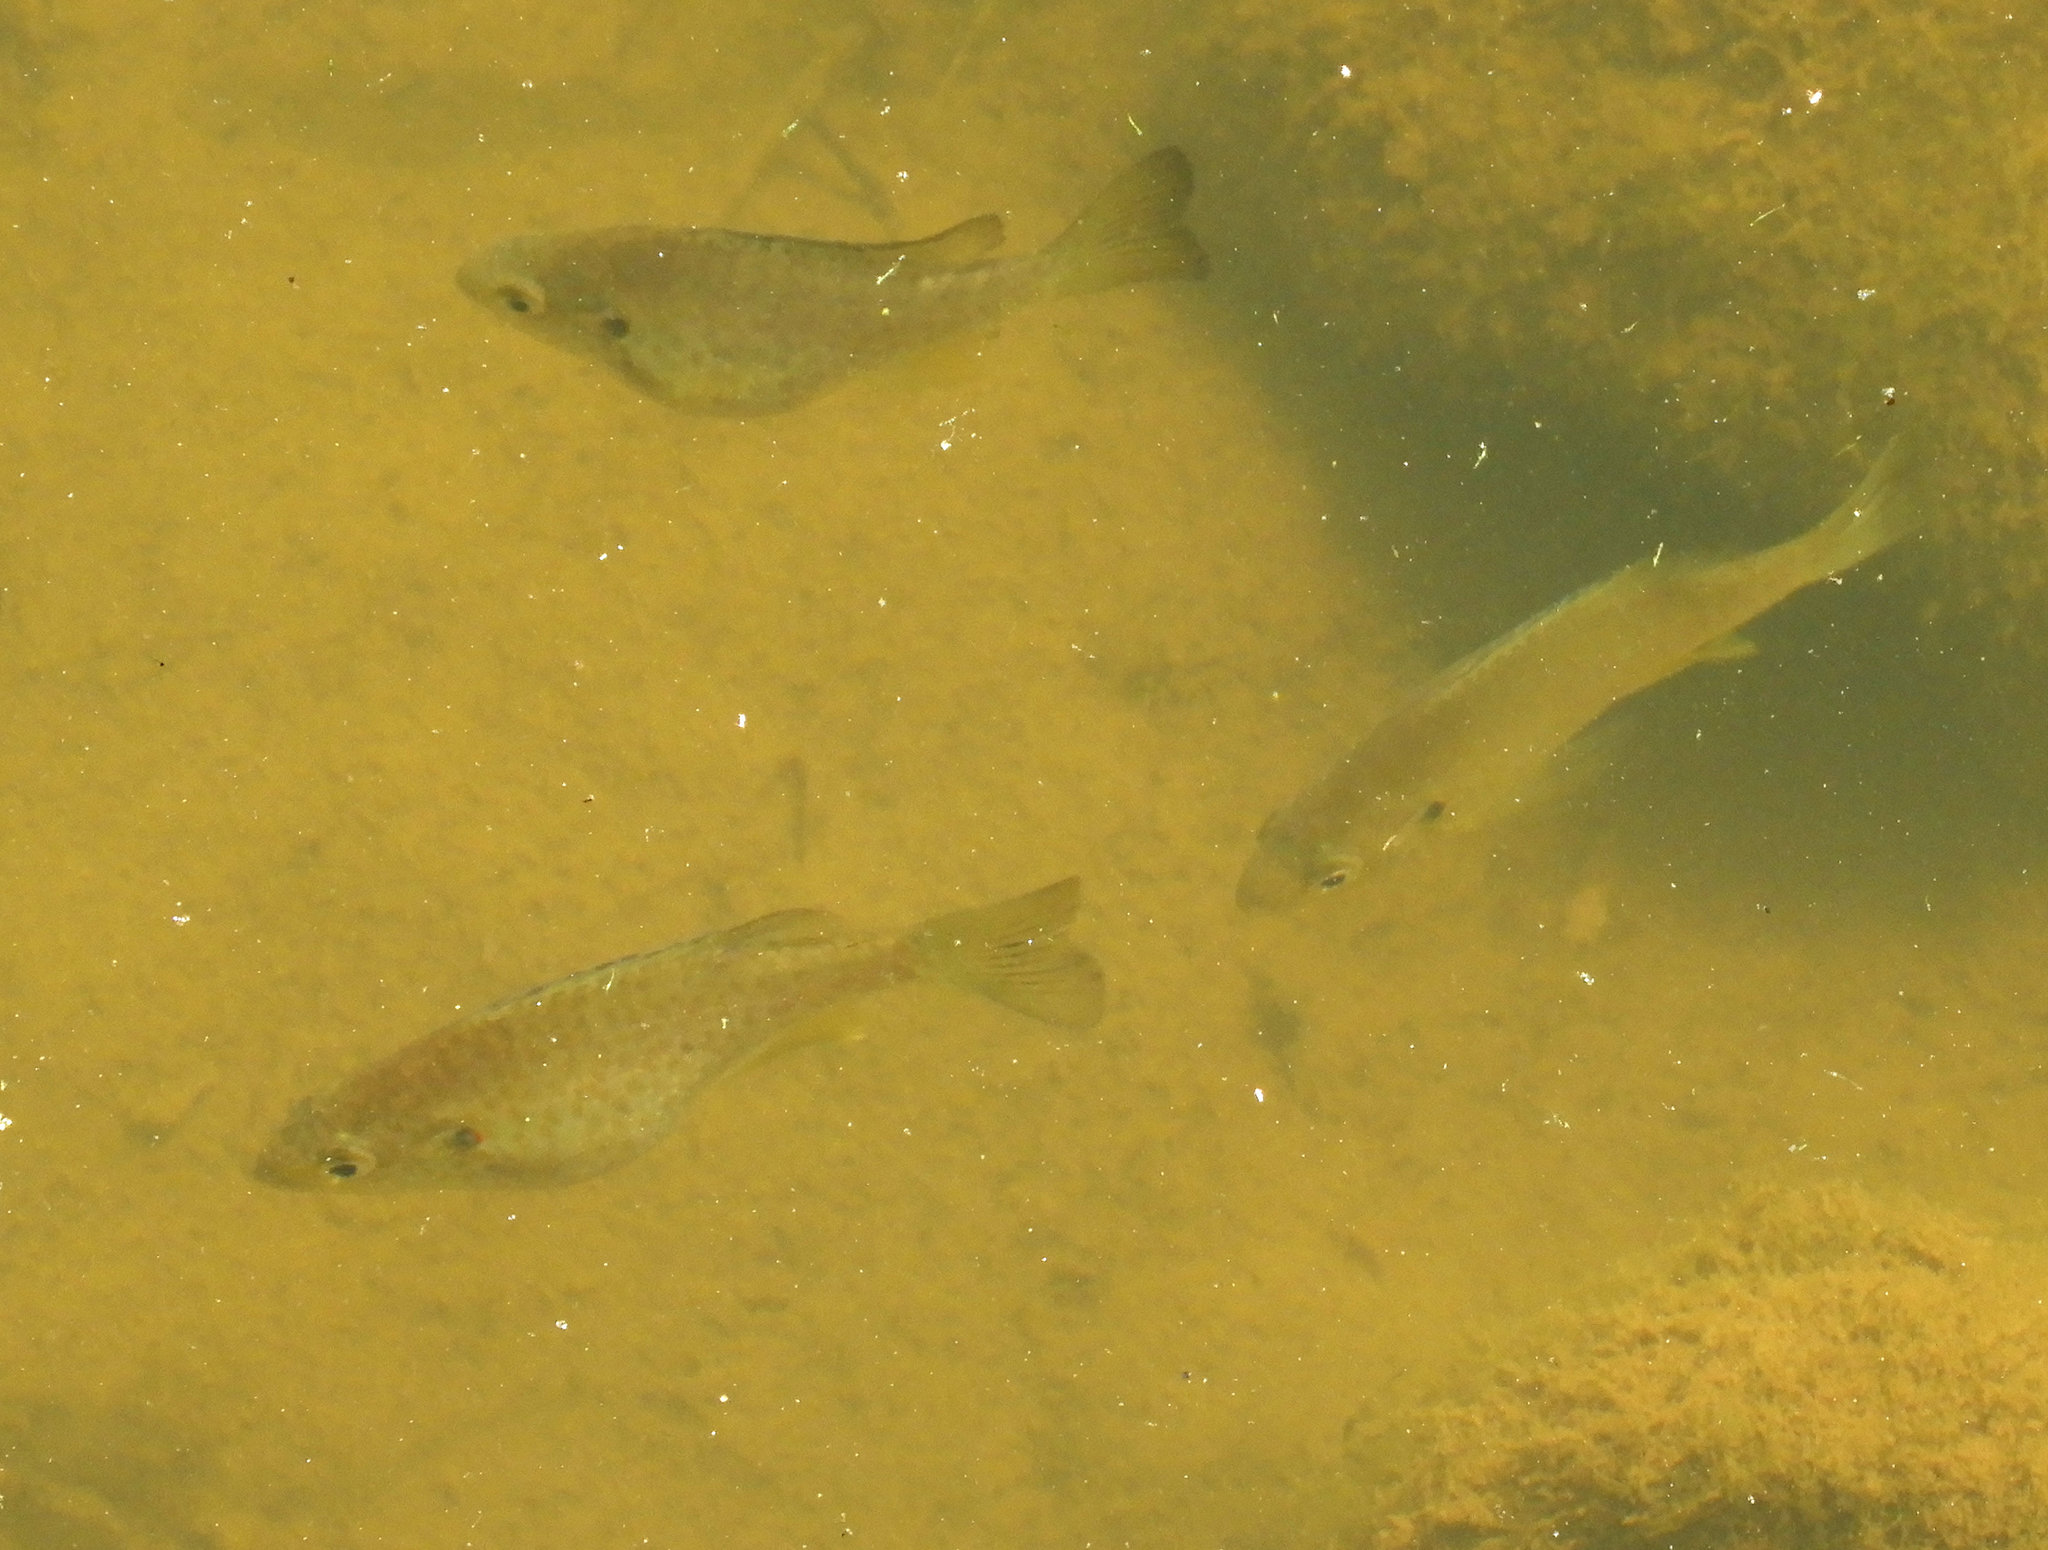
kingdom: Animalia
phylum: Chordata
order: Perciformes
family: Centrarchidae
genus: Lepomis
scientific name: Lepomis microlophus
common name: Redear sunfish
